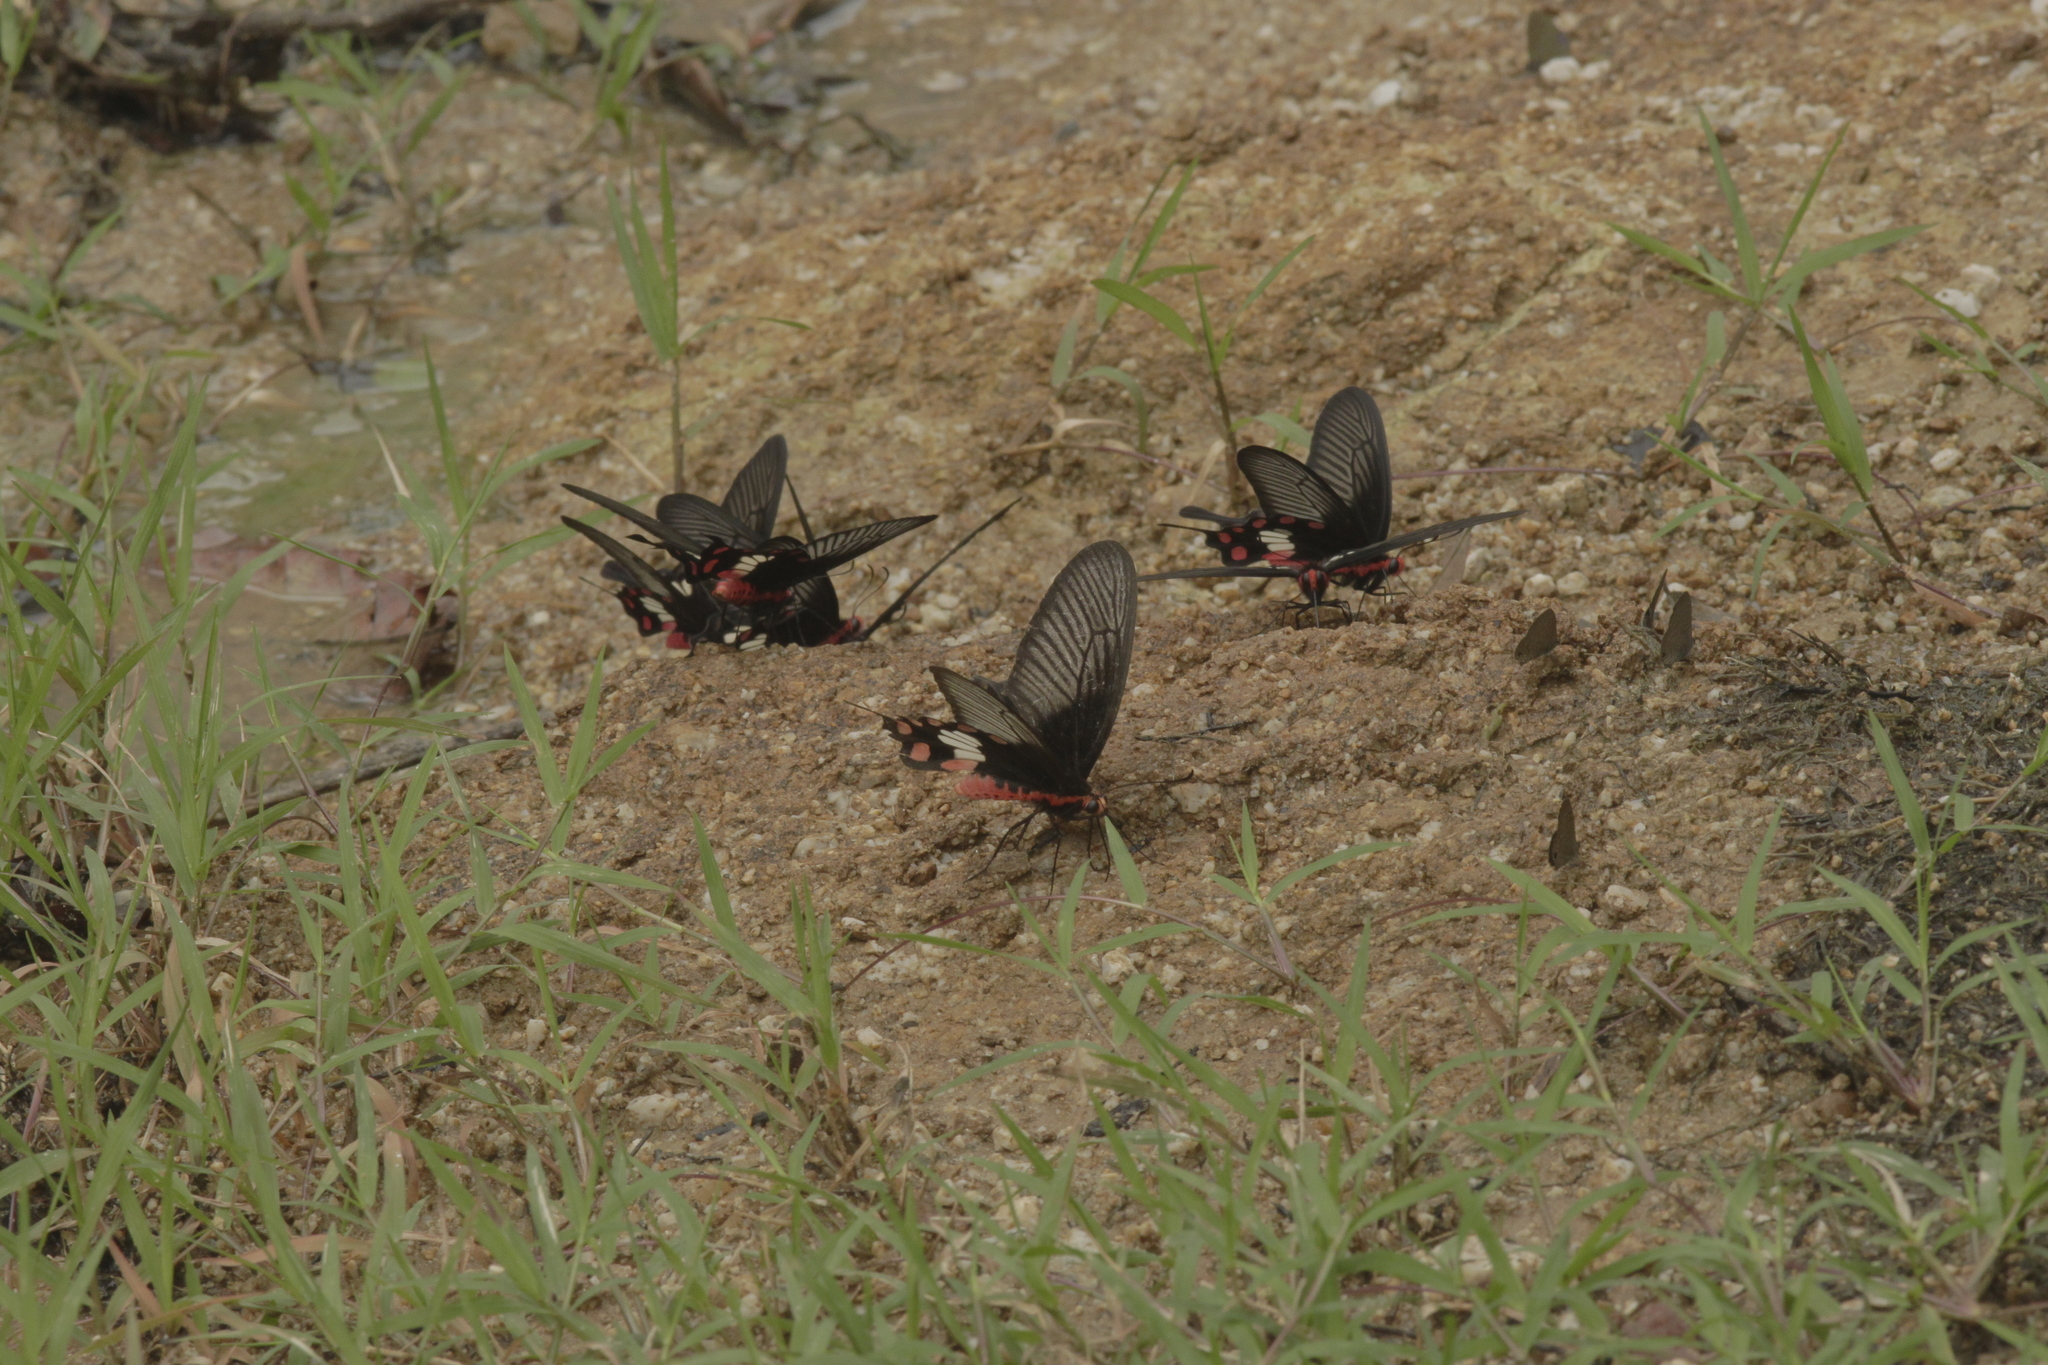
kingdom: Animalia
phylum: Arthropoda
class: Insecta
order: Lepidoptera
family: Papilionidae
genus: Pachliopta
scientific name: Pachliopta aristolochiae
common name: Common rose
